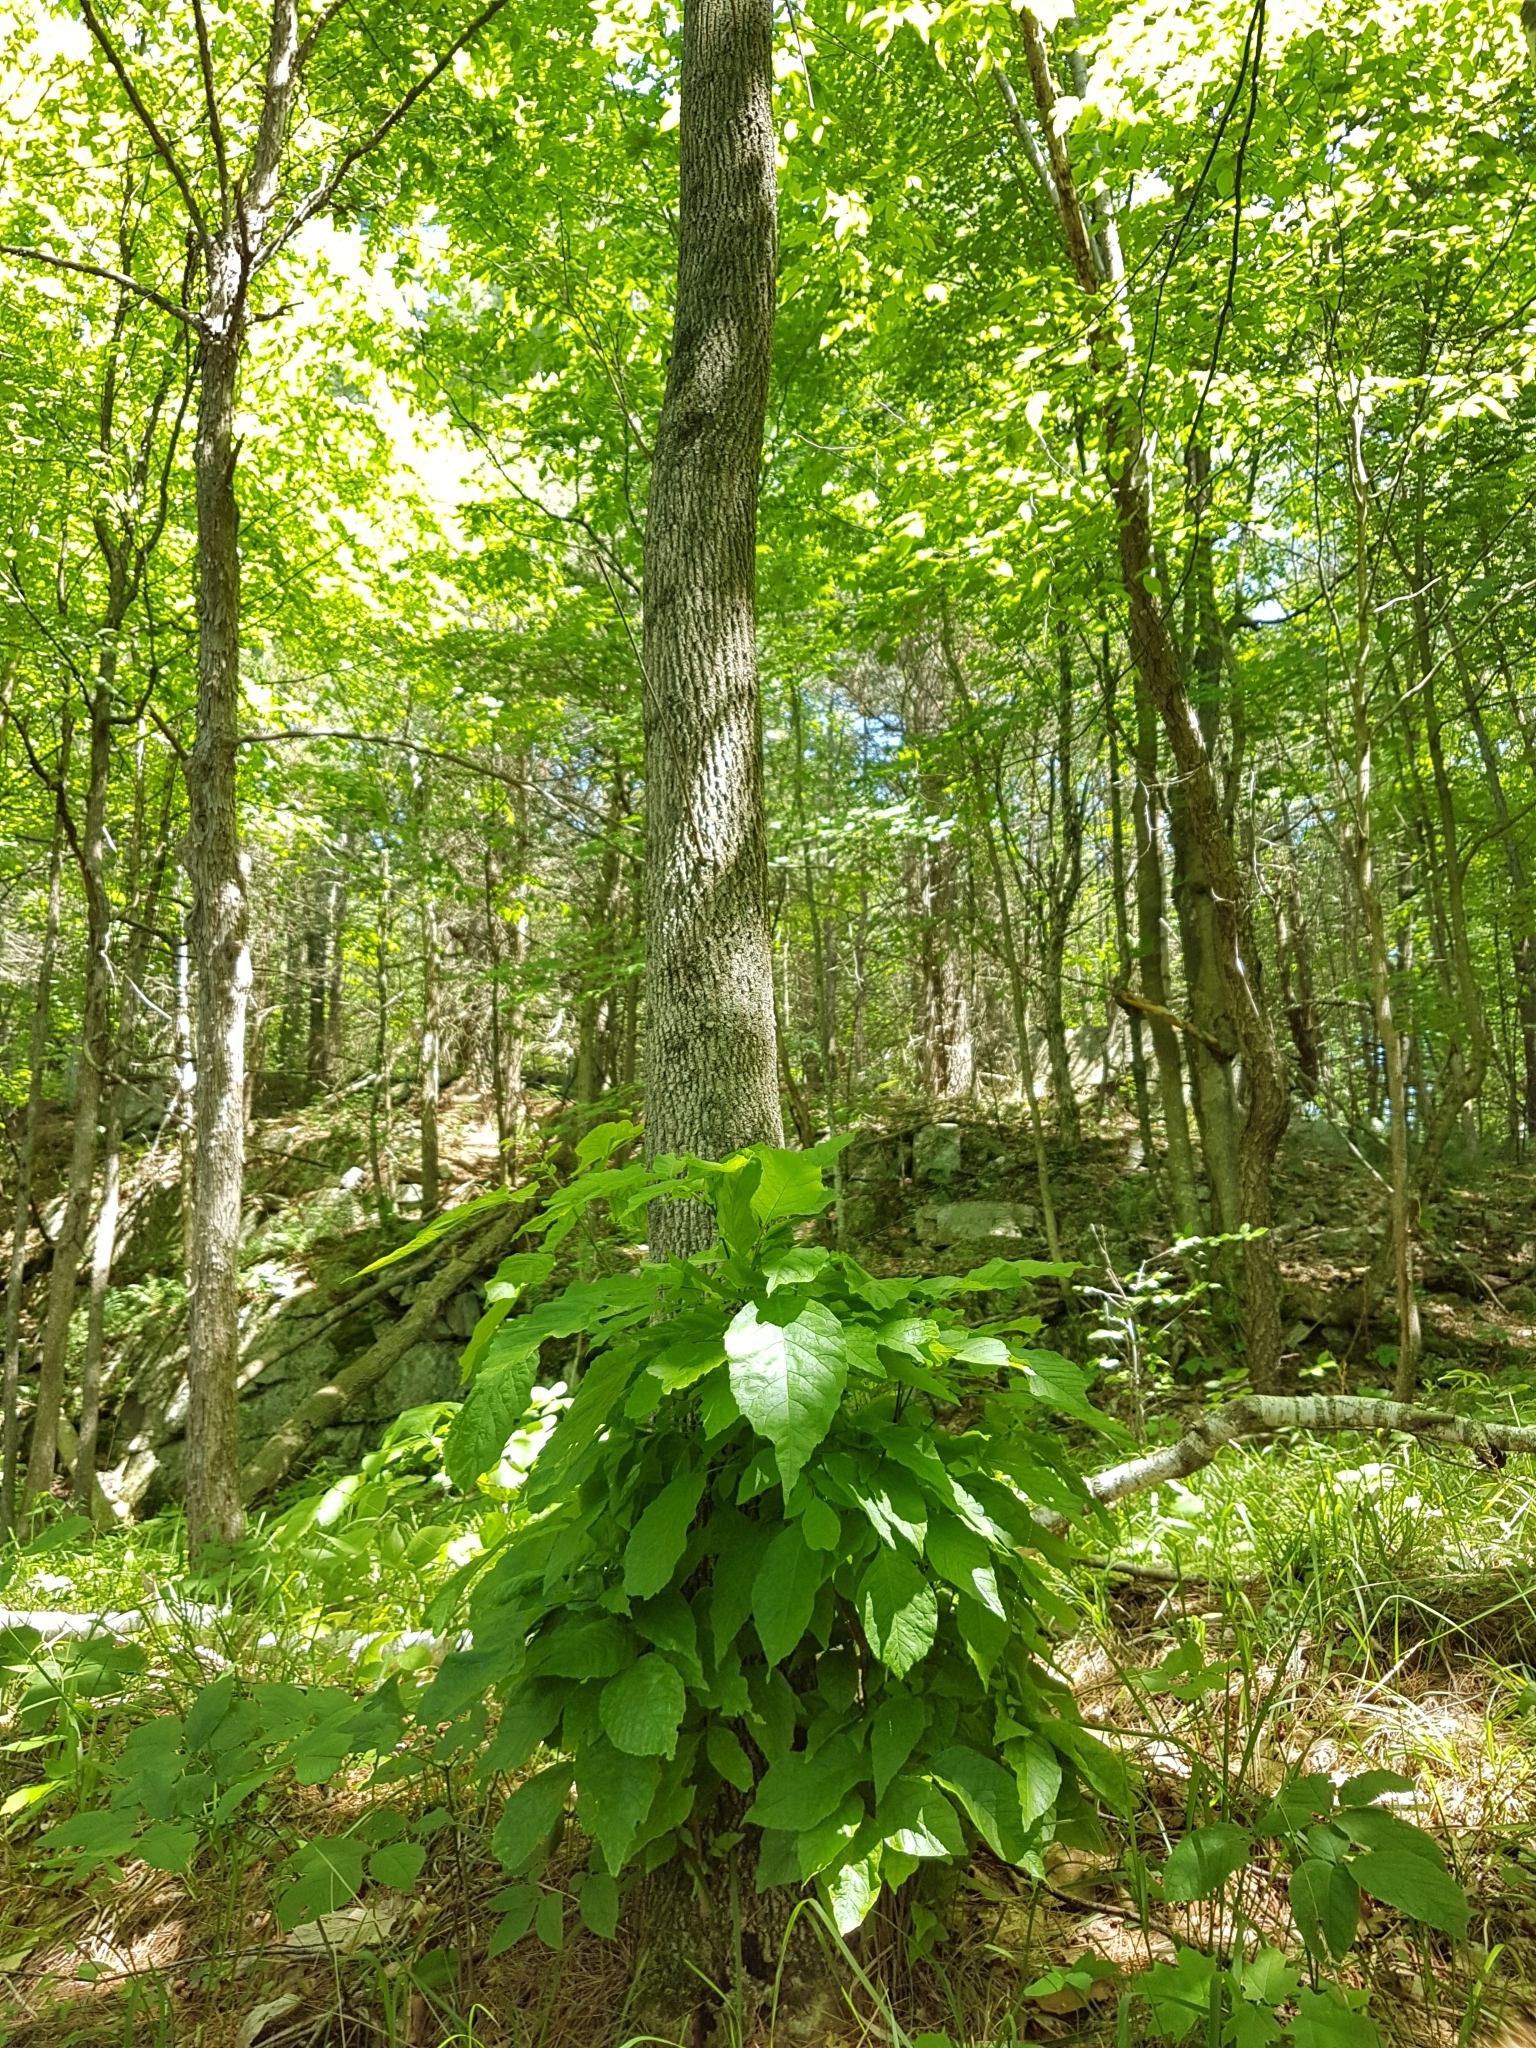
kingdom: Plantae
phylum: Tracheophyta
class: Magnoliopsida
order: Lamiales
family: Oleaceae
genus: Fraxinus
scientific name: Fraxinus americana
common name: White ash
